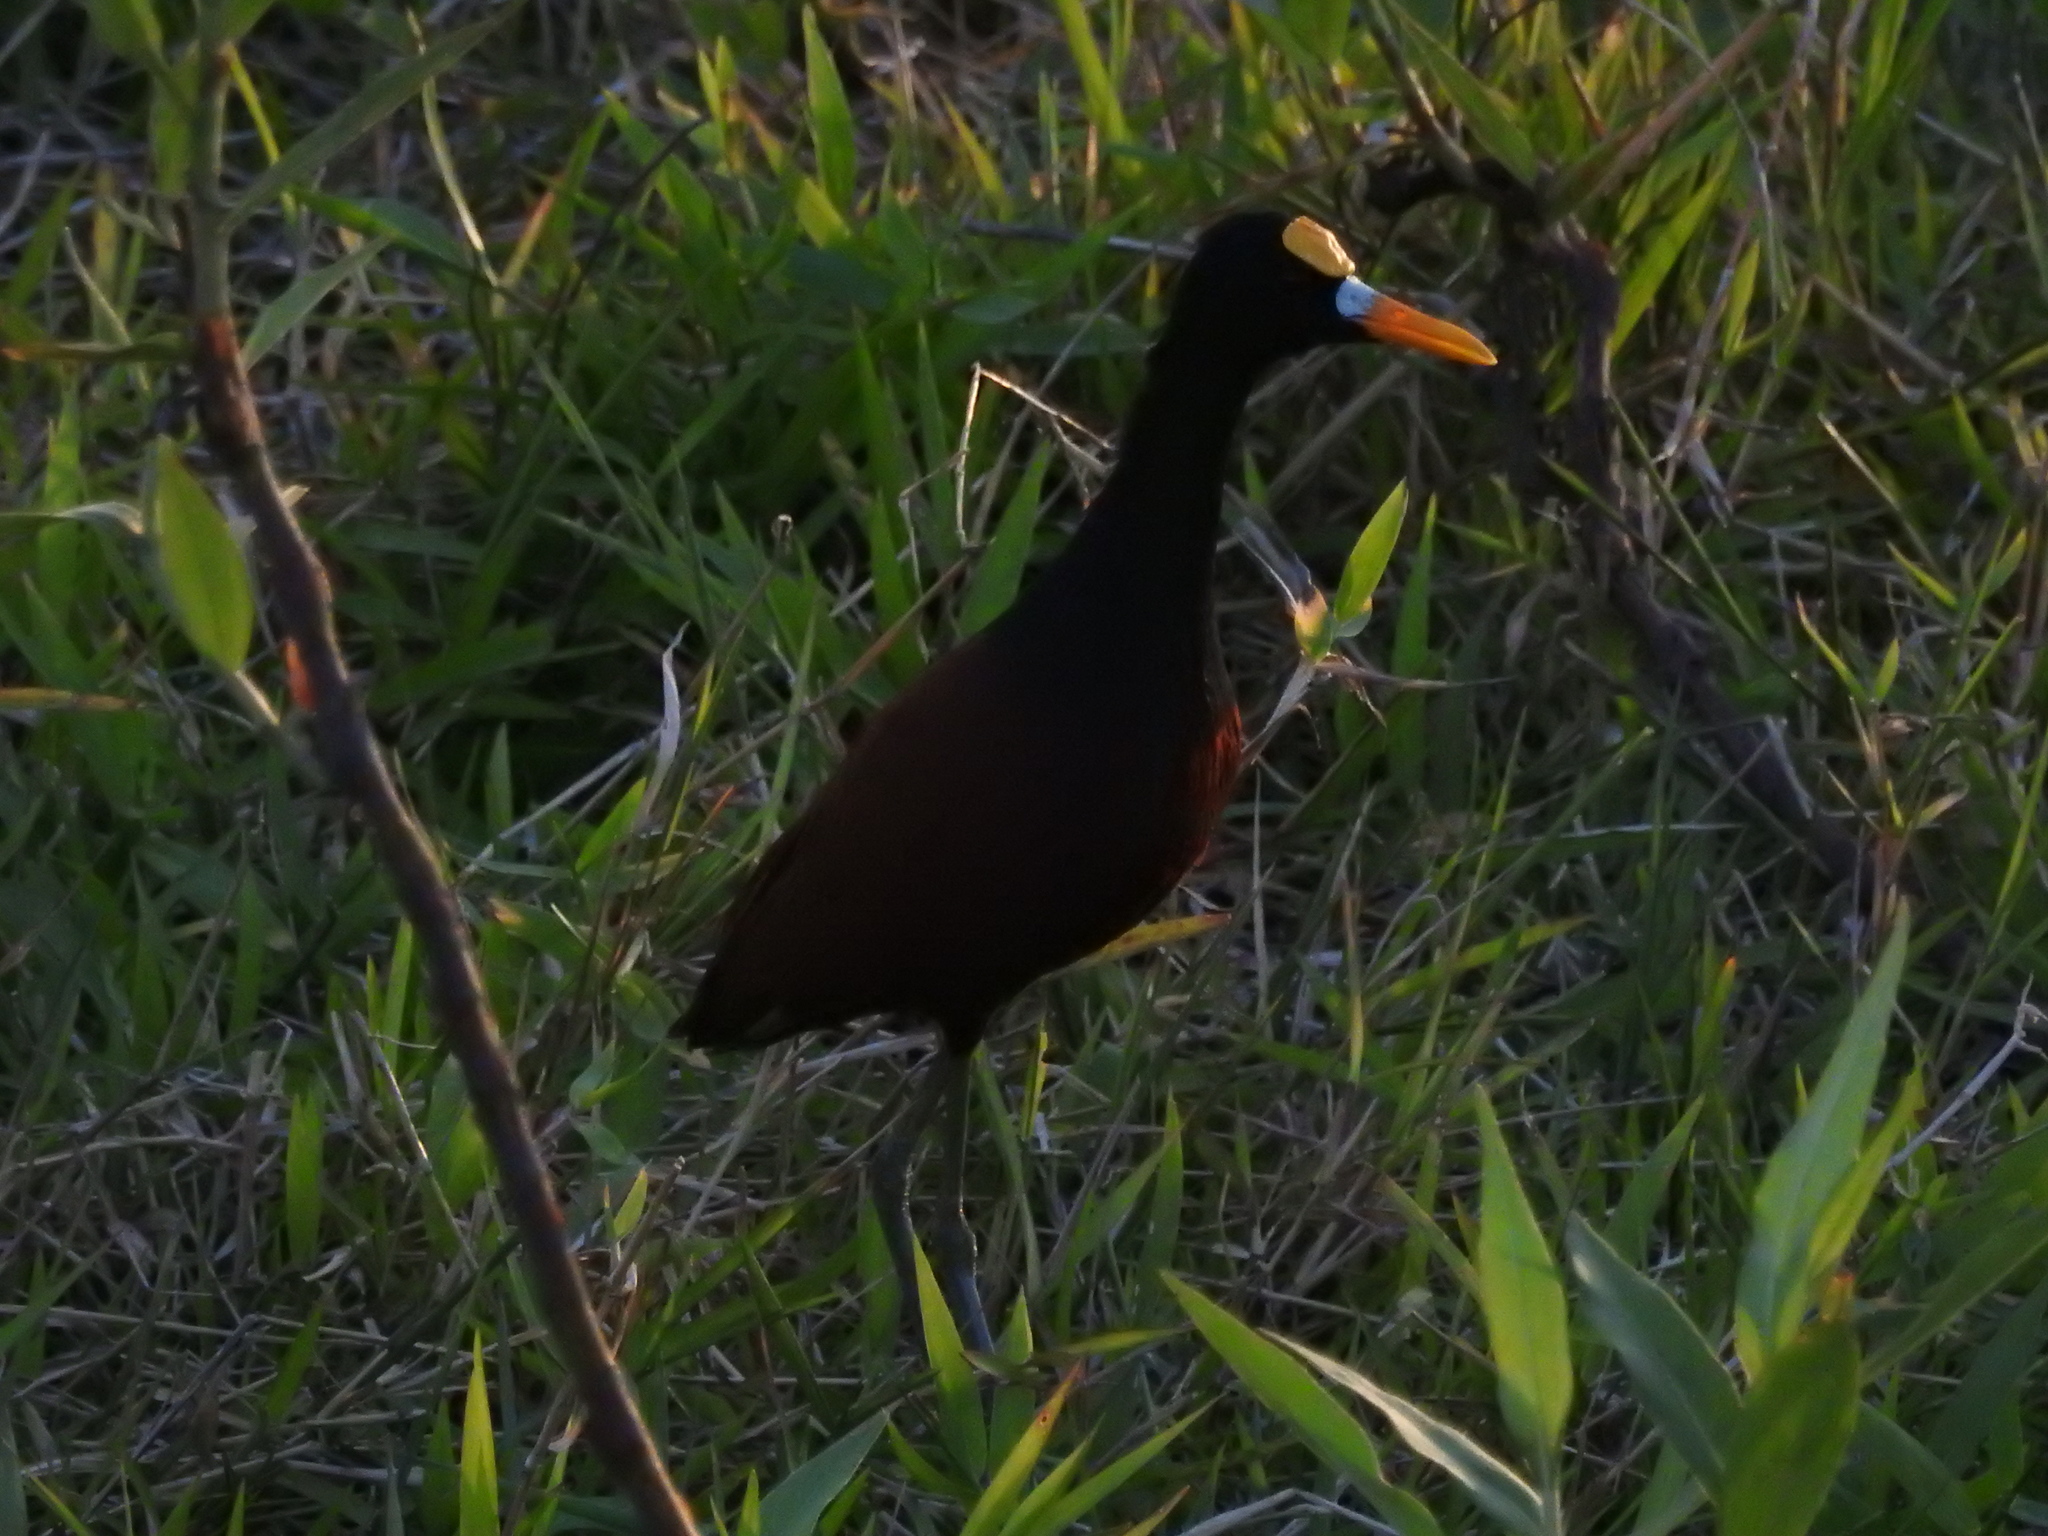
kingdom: Animalia
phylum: Chordata
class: Aves
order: Charadriiformes
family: Jacanidae
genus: Jacana
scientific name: Jacana spinosa
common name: Northern jacana
